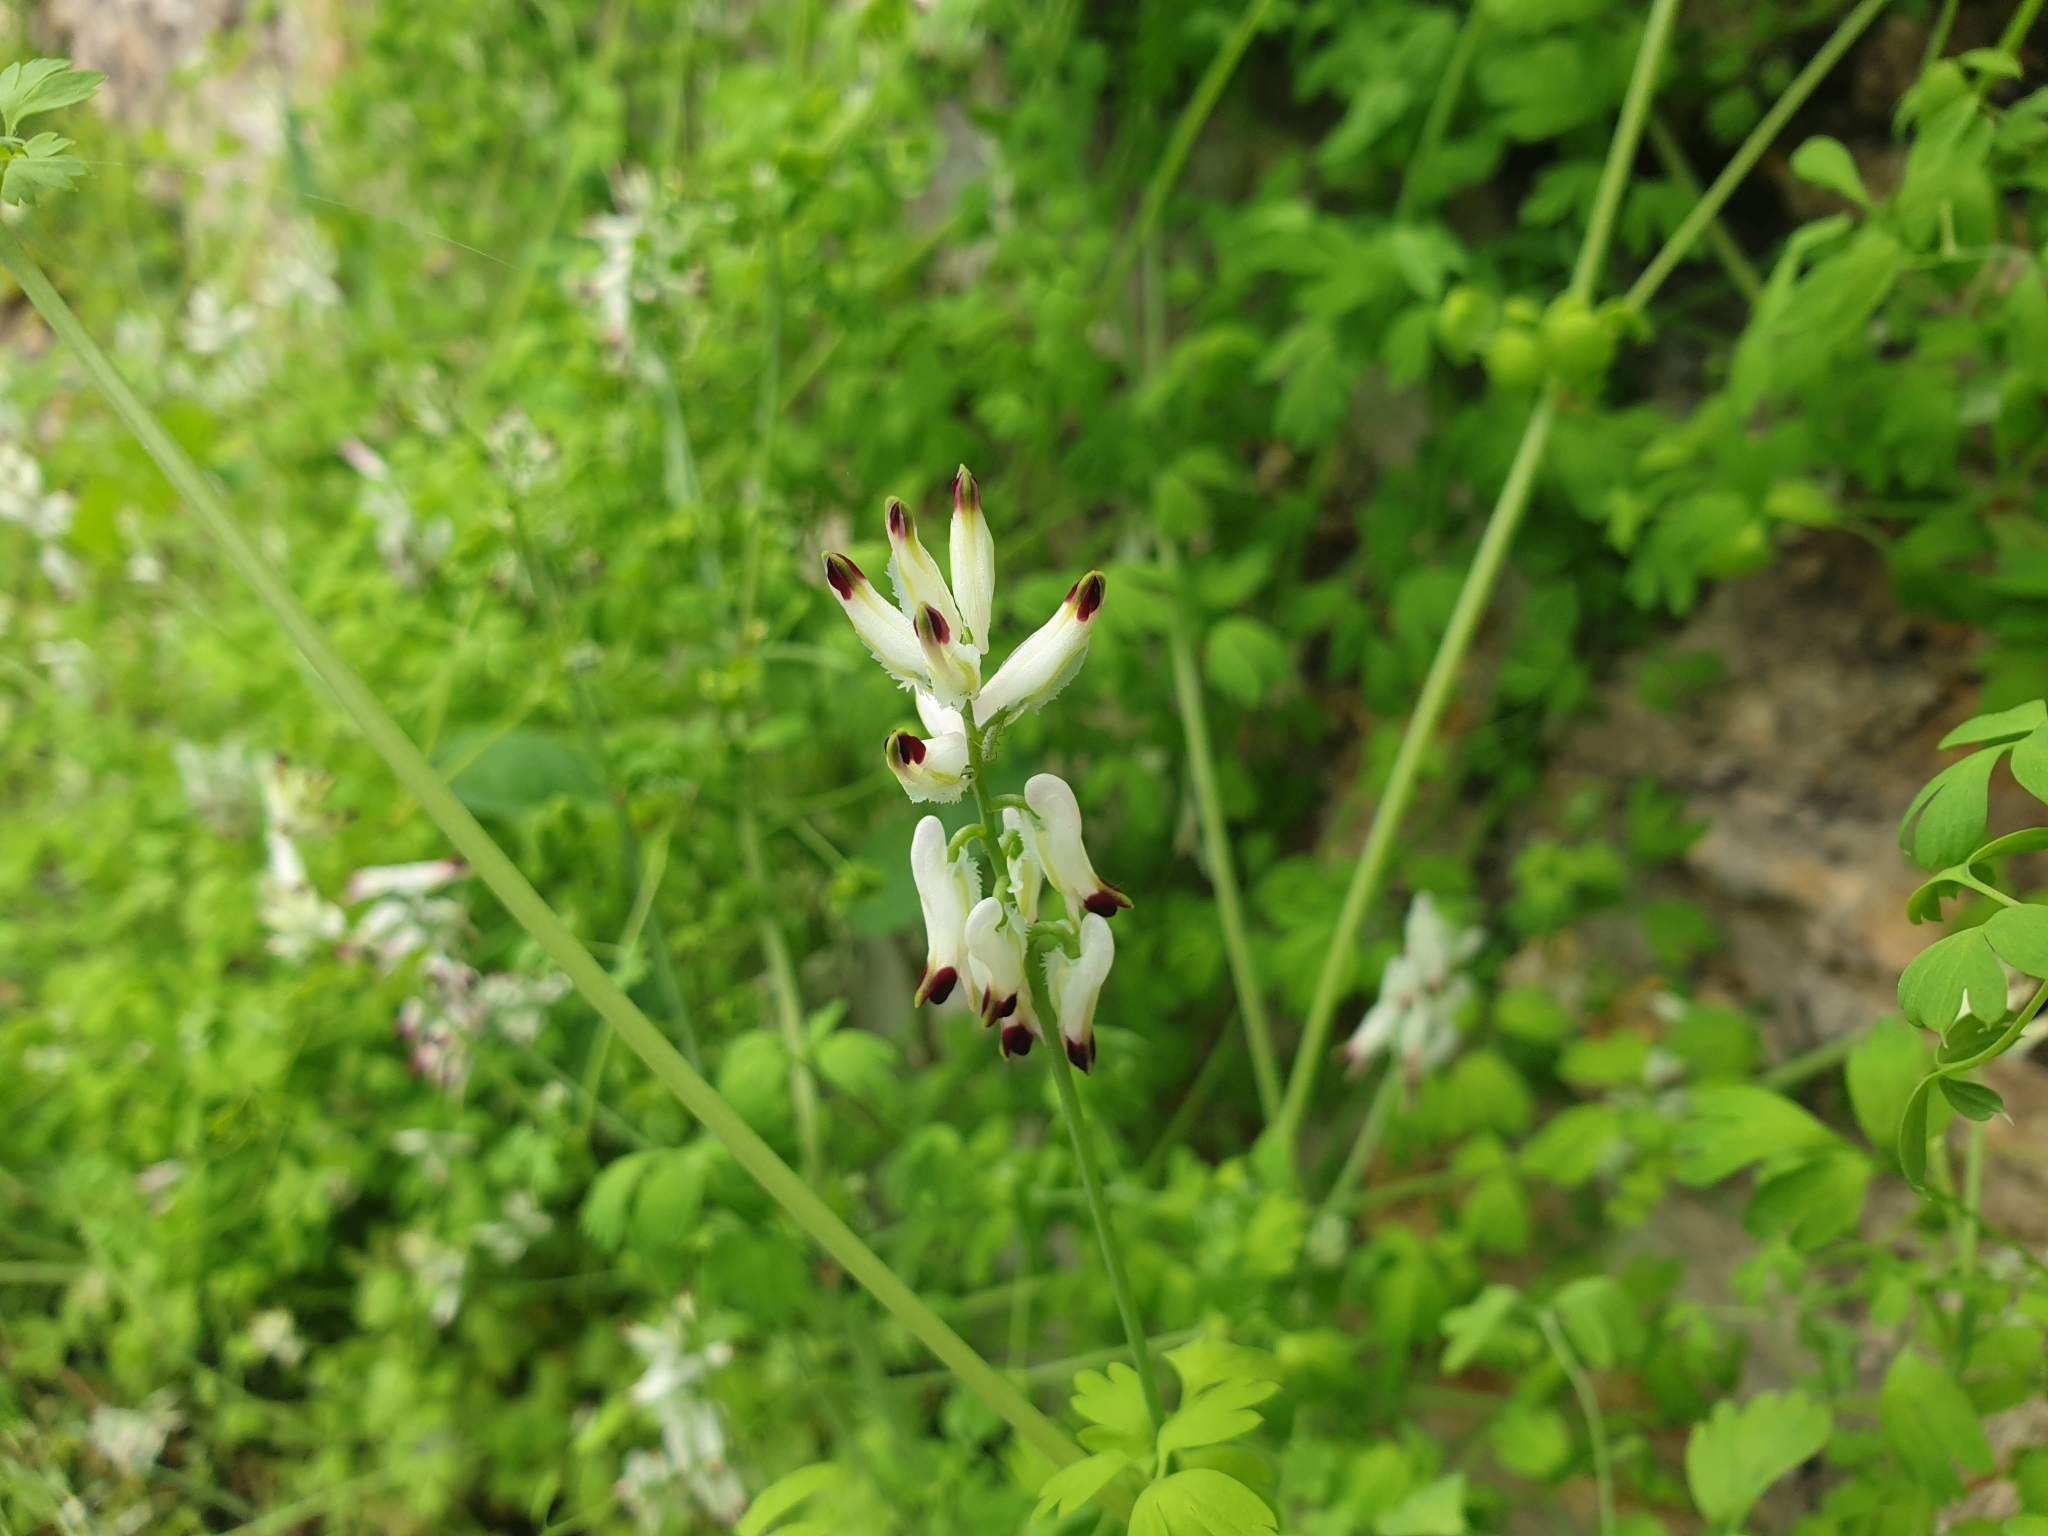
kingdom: Plantae
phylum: Tracheophyta
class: Magnoliopsida
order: Ranunculales
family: Papaveraceae
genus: Fumaria
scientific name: Fumaria capreolata
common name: White ramping-fumitory
